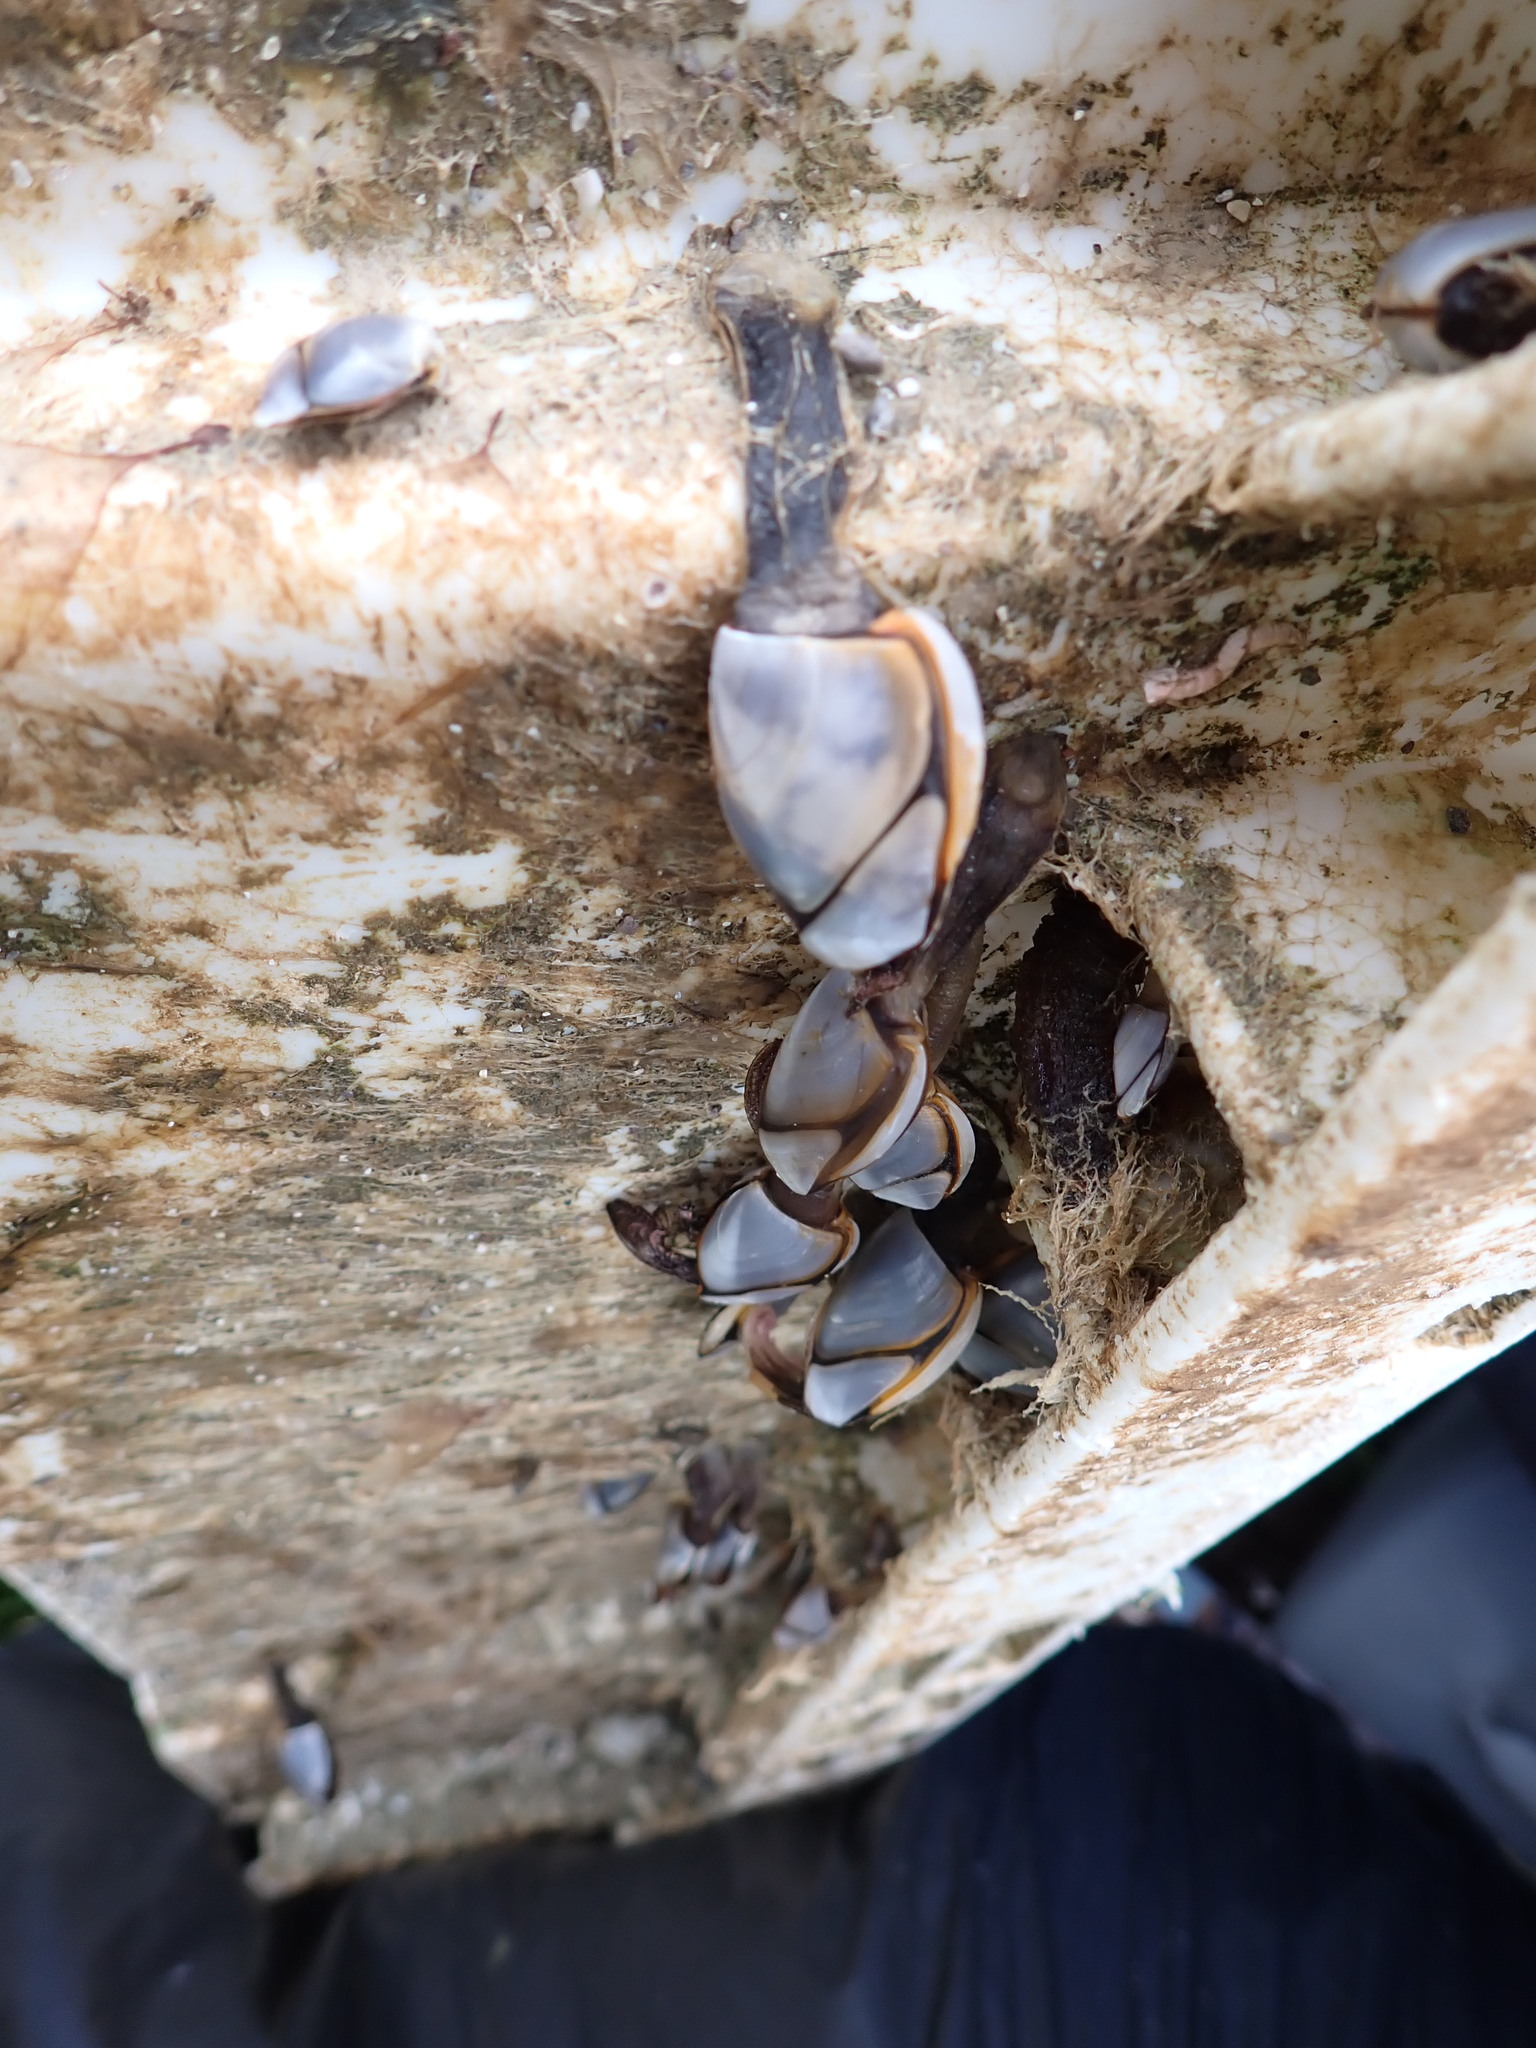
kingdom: Animalia
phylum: Arthropoda
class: Maxillopoda
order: Pedunculata
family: Lepadidae
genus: Lepas
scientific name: Lepas anatifera
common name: Common goose barnacle
